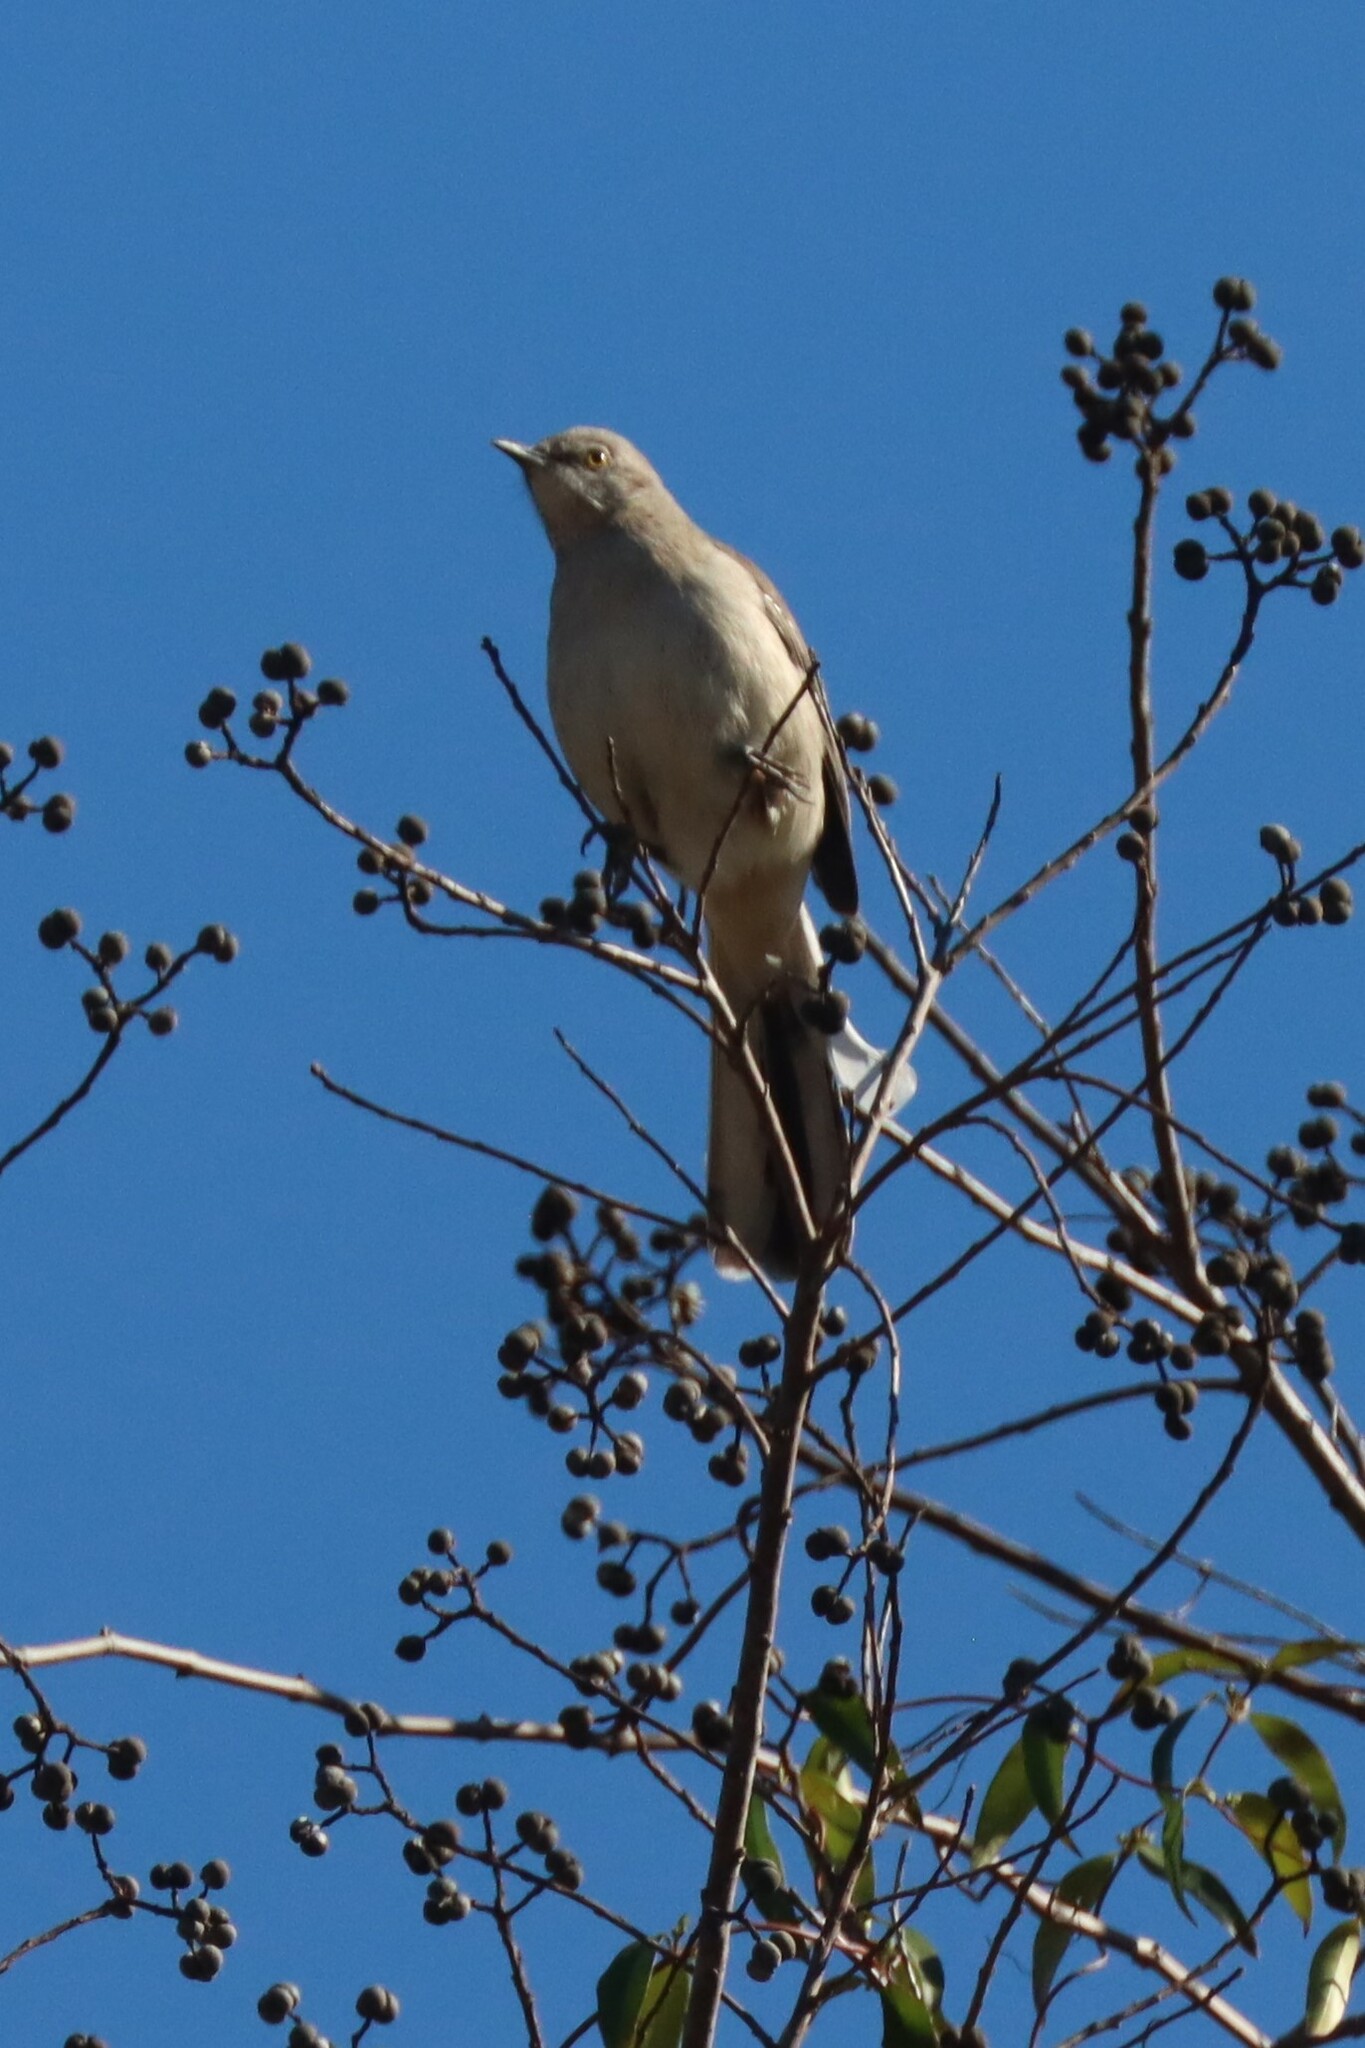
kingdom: Animalia
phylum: Chordata
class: Aves
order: Passeriformes
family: Mimidae
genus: Mimus
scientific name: Mimus polyglottos
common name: Northern mockingbird
